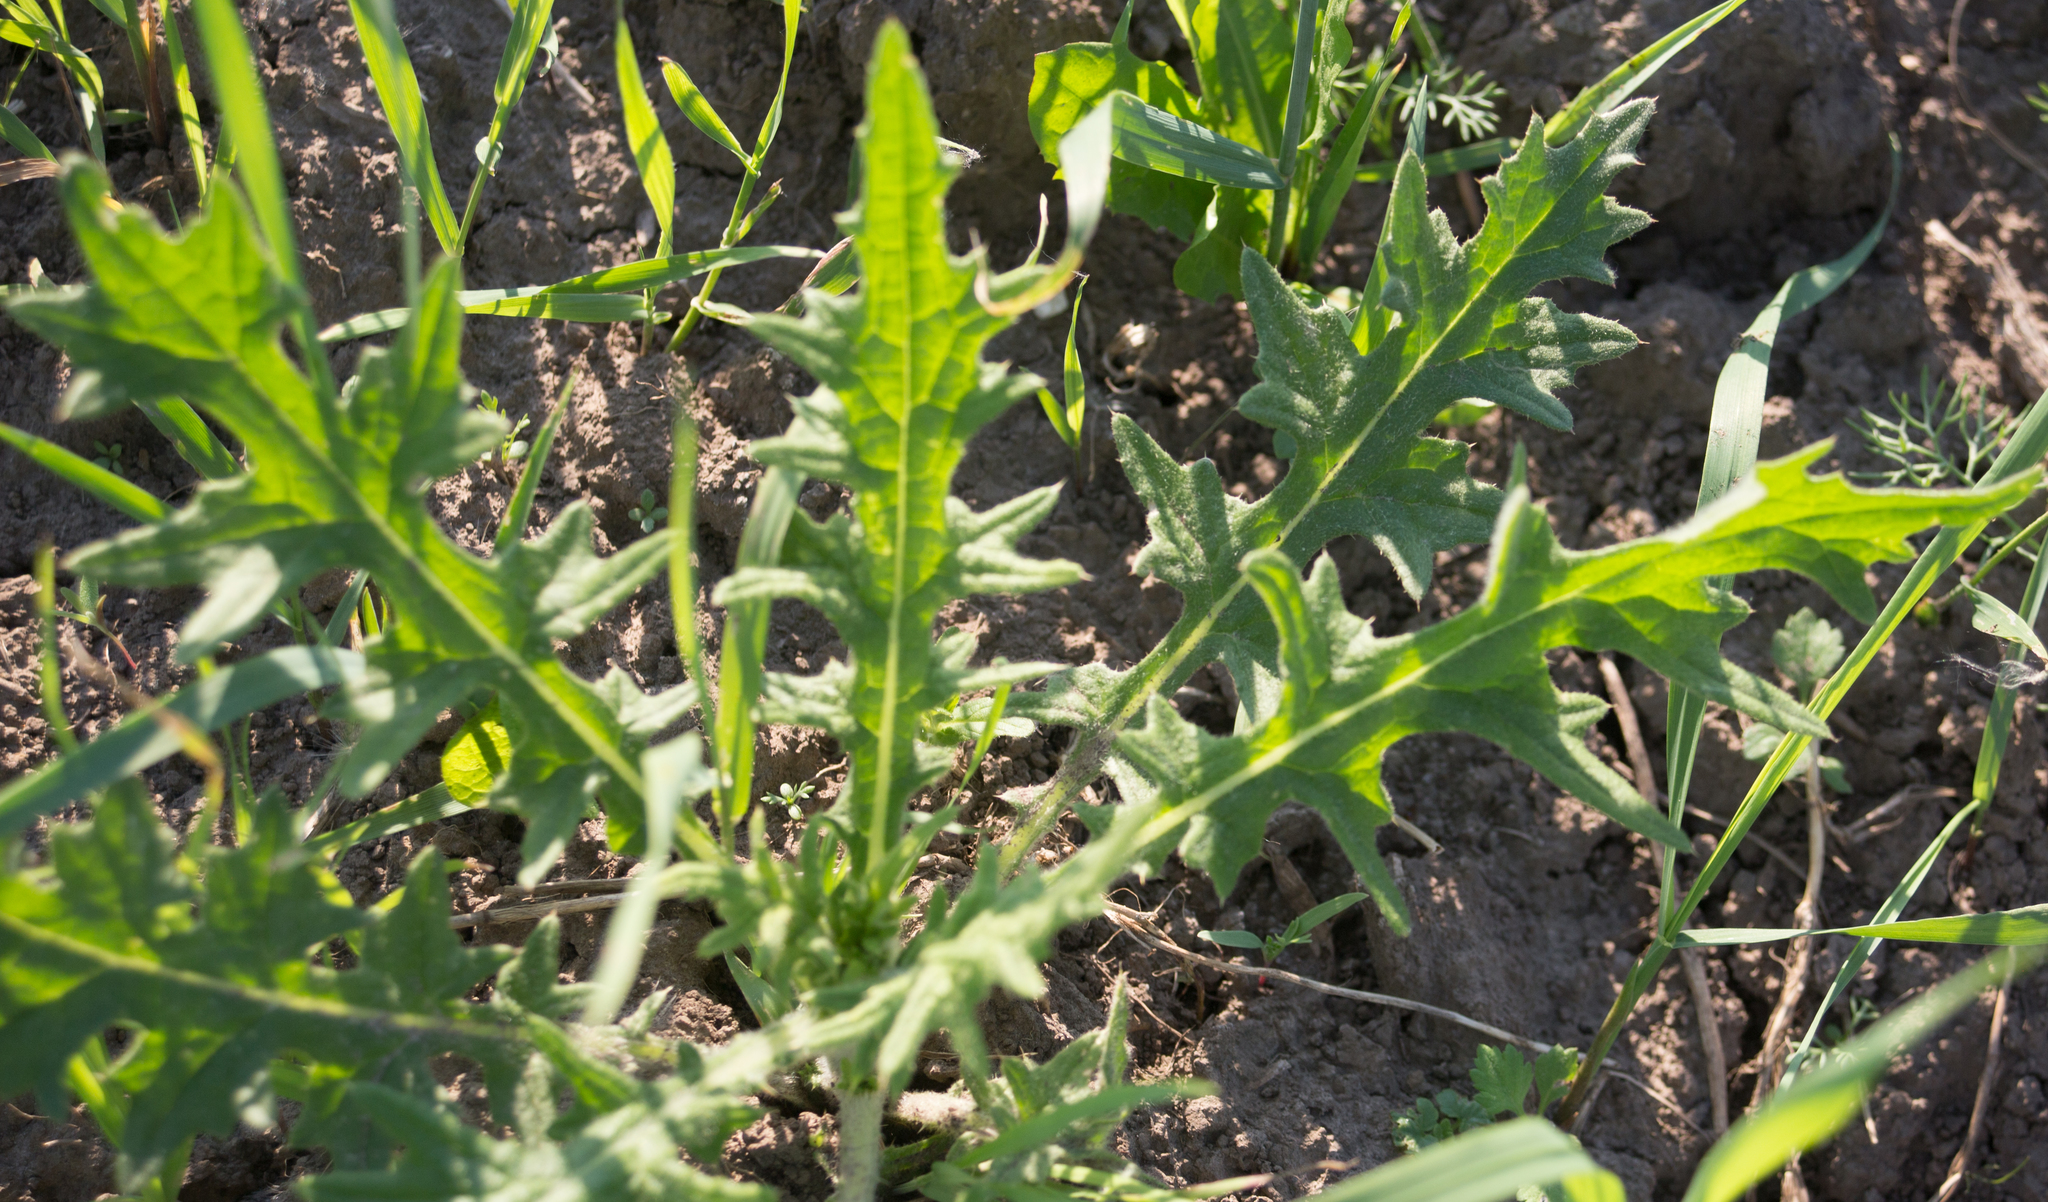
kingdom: Plantae
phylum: Tracheophyta
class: Magnoliopsida
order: Asterales
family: Asteraceae
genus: Cirsium
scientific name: Cirsium vulgare
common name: Bull thistle
